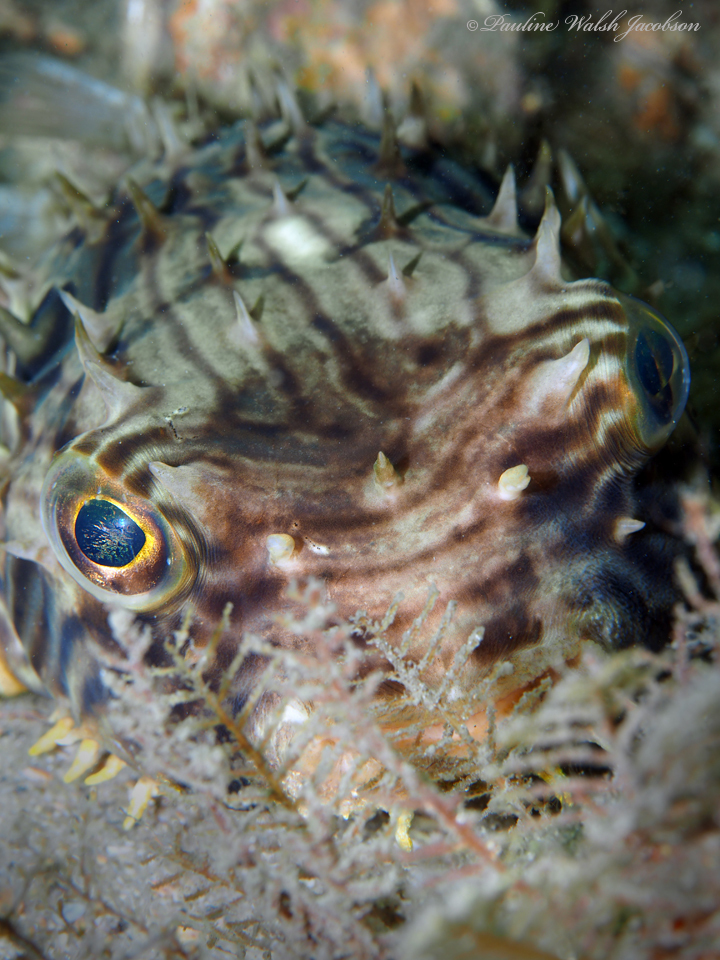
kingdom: Animalia
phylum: Chordata
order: Tetraodontiformes
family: Diodontidae
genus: Chilomycterus
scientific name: Chilomycterus schoepfii
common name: Striped burrfish
